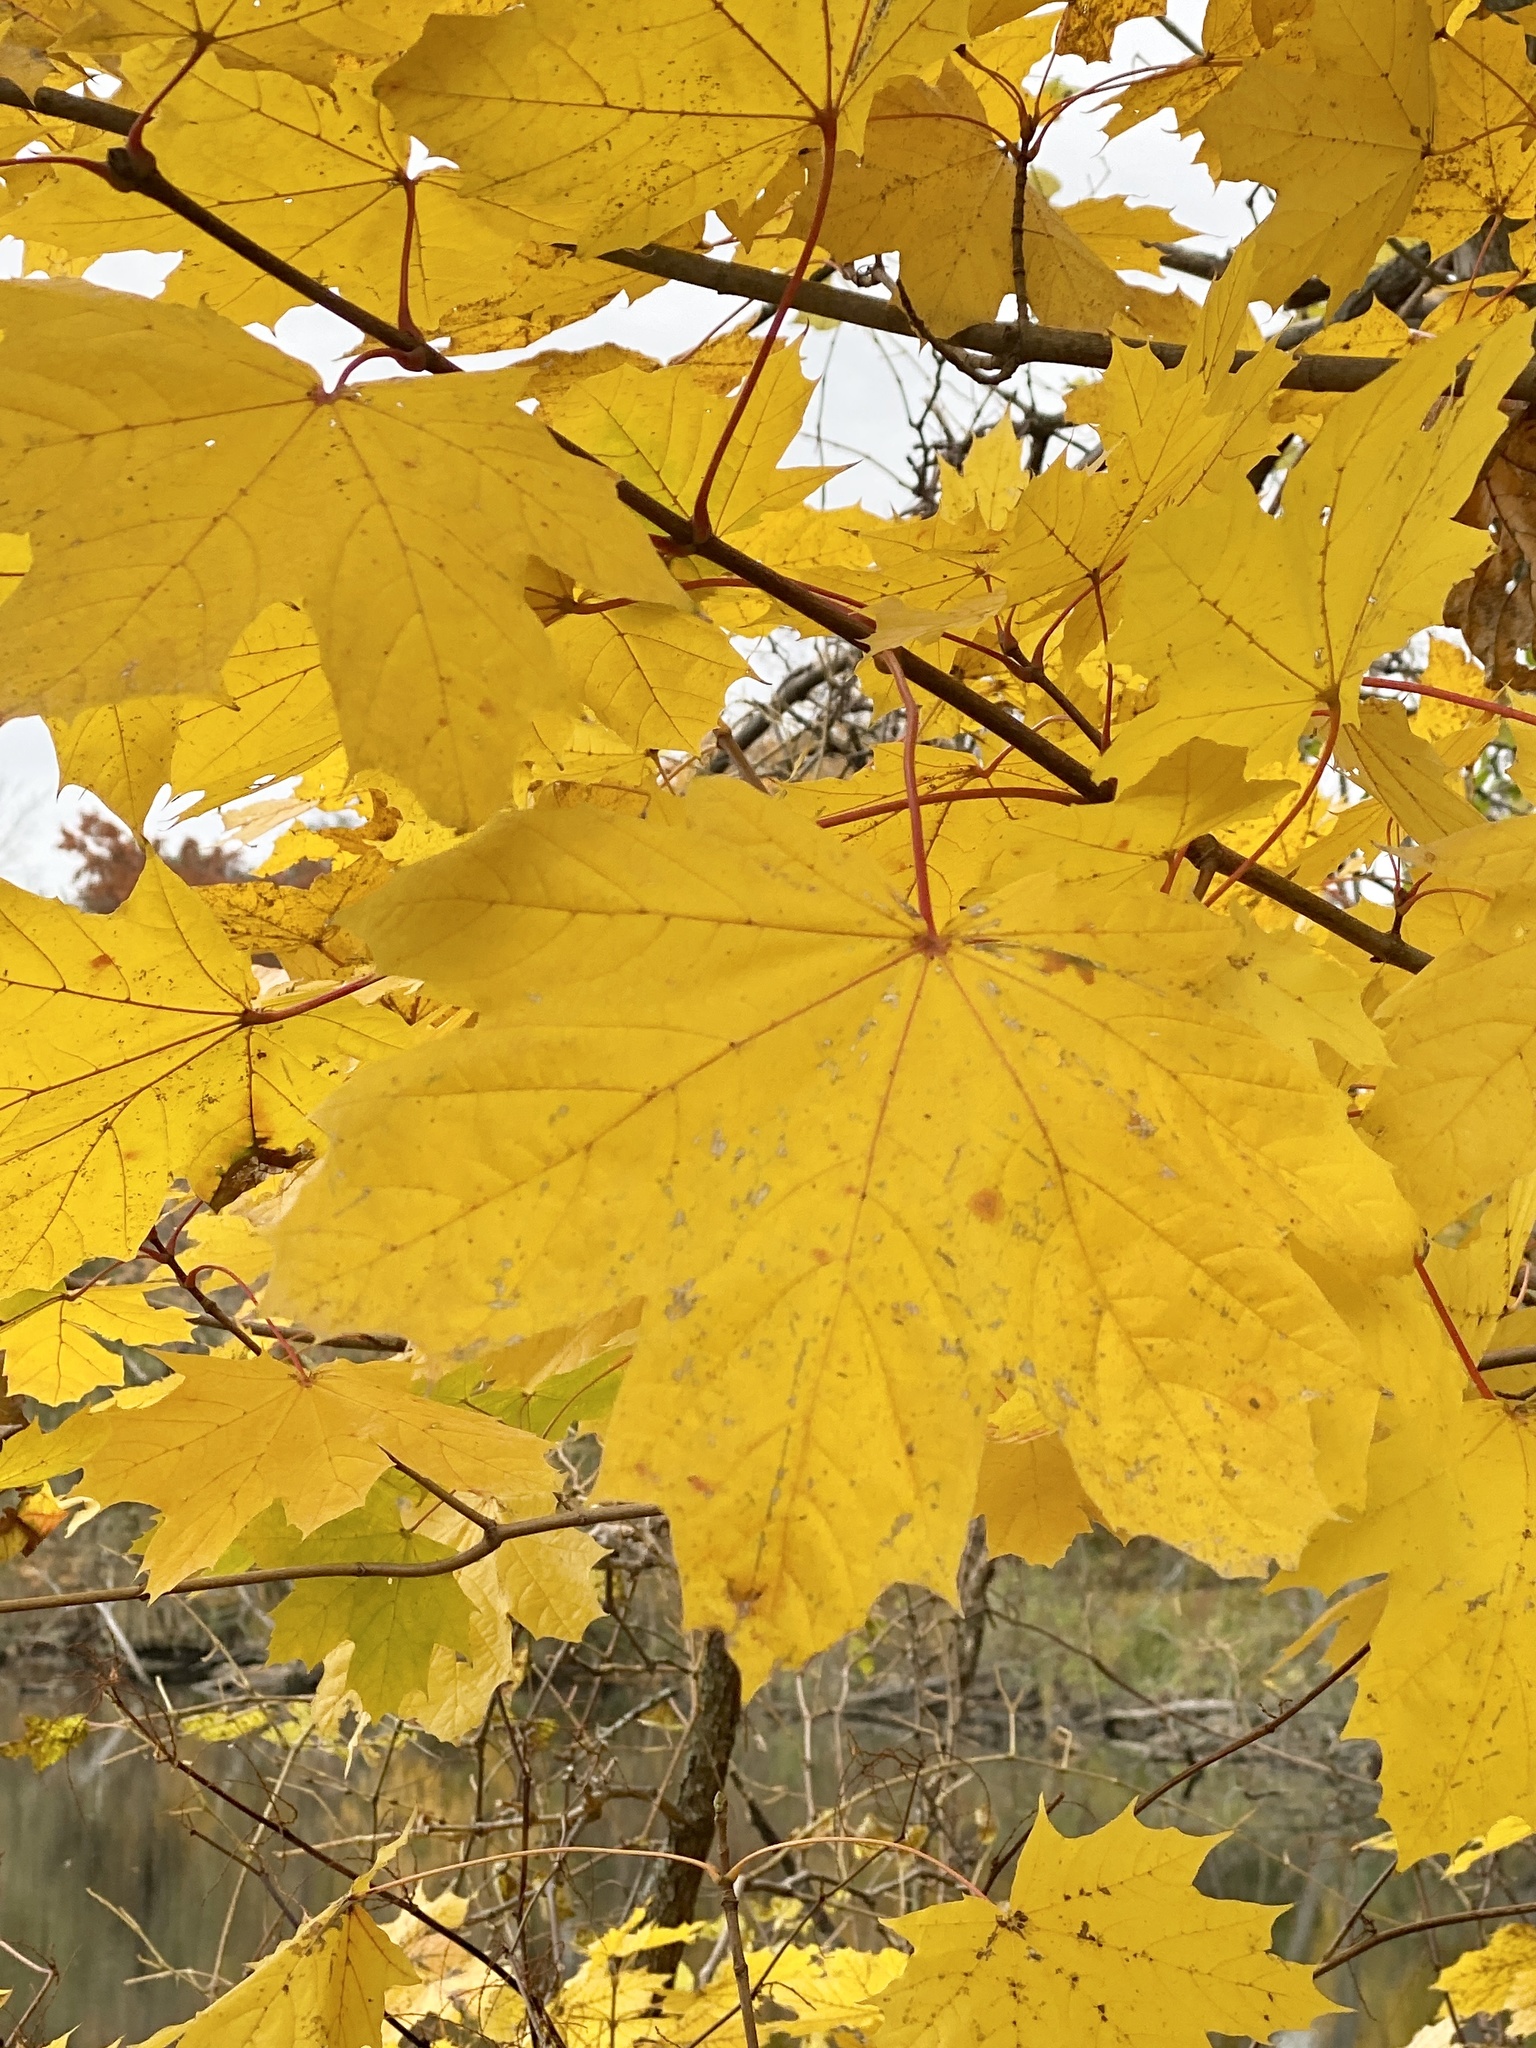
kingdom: Plantae
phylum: Tracheophyta
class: Magnoliopsida
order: Sapindales
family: Sapindaceae
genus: Acer
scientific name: Acer platanoides
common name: Norway maple
